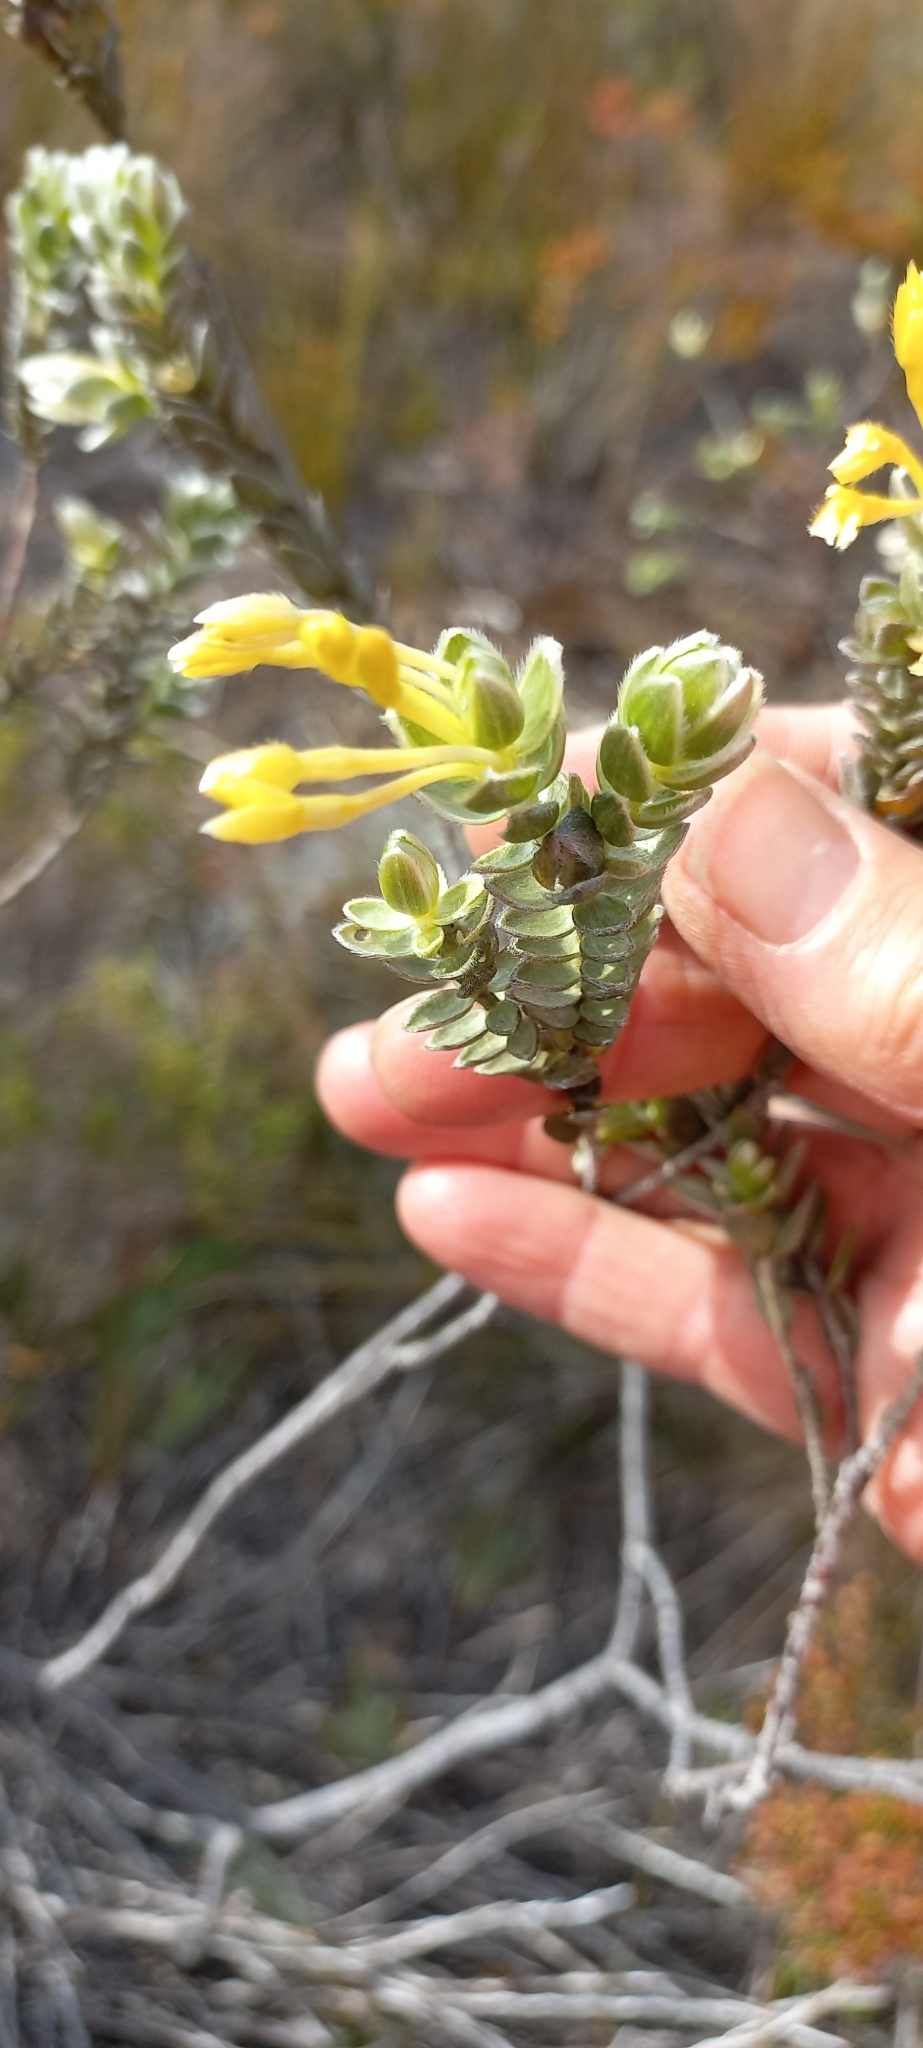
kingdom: Plantae
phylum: Tracheophyta
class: Magnoliopsida
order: Malvales
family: Thymelaeaceae
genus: Gnidia
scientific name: Gnidia anomala
